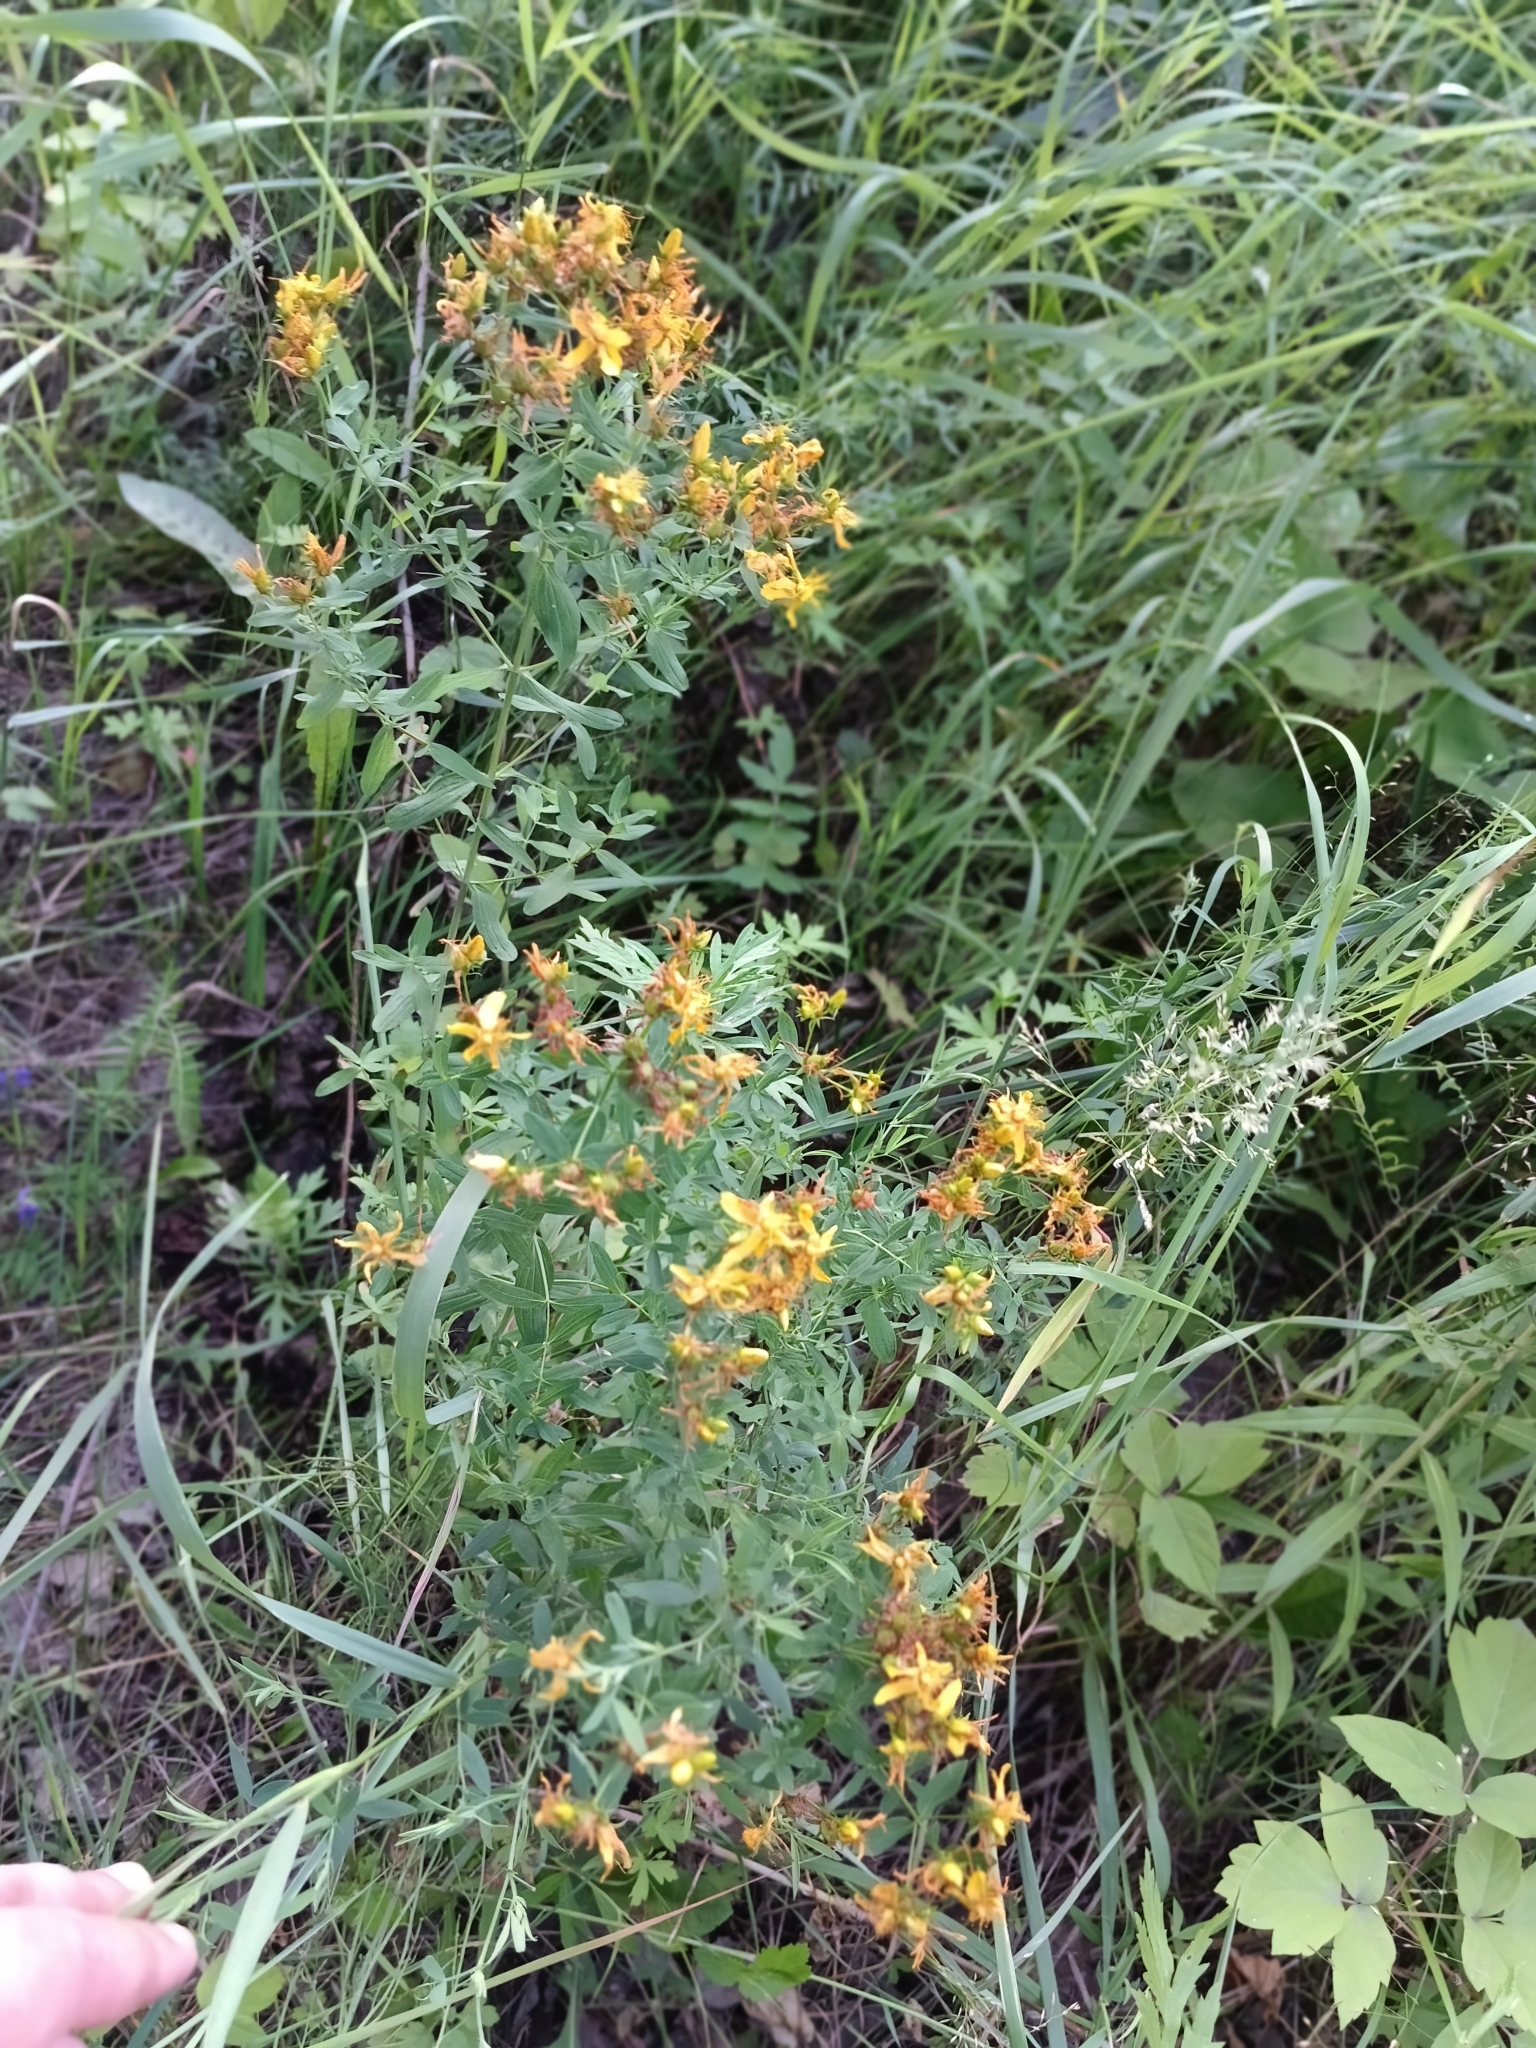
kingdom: Plantae
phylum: Tracheophyta
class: Magnoliopsida
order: Malpighiales
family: Hypericaceae
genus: Hypericum
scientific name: Hypericum perforatum
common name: Common st. johnswort
